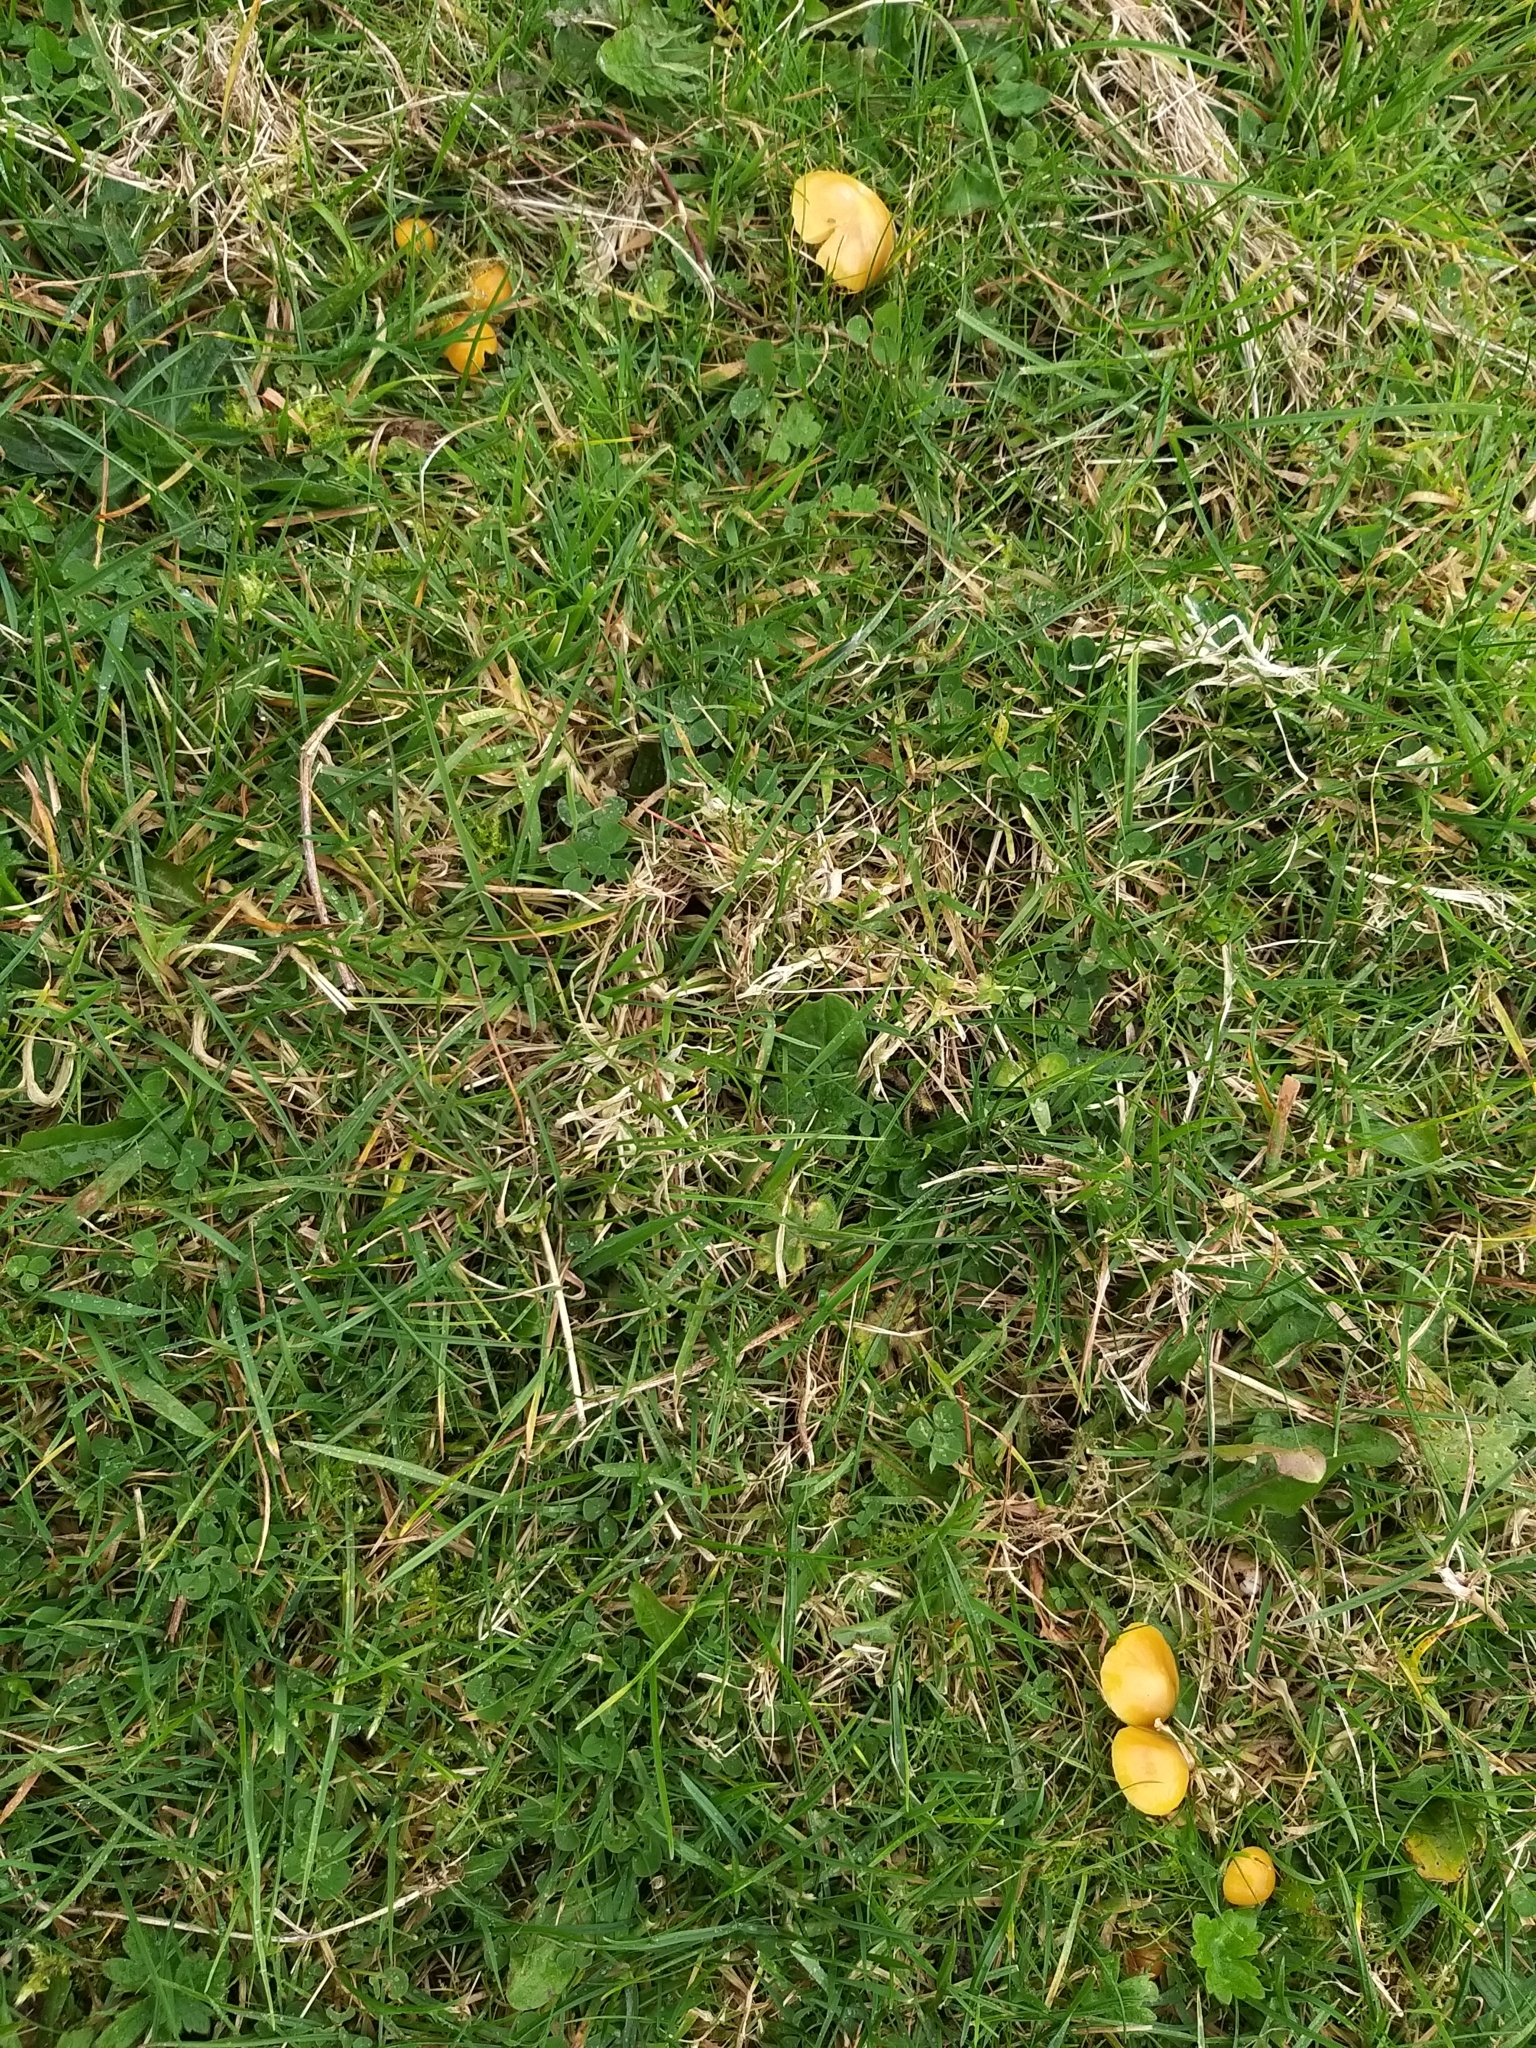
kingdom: Fungi
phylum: Basidiomycota
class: Agaricomycetes
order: Agaricales
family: Hygrophoraceae
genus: Gliophorus
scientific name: Gliophorus psittacinus
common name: Parrot wax-cap
